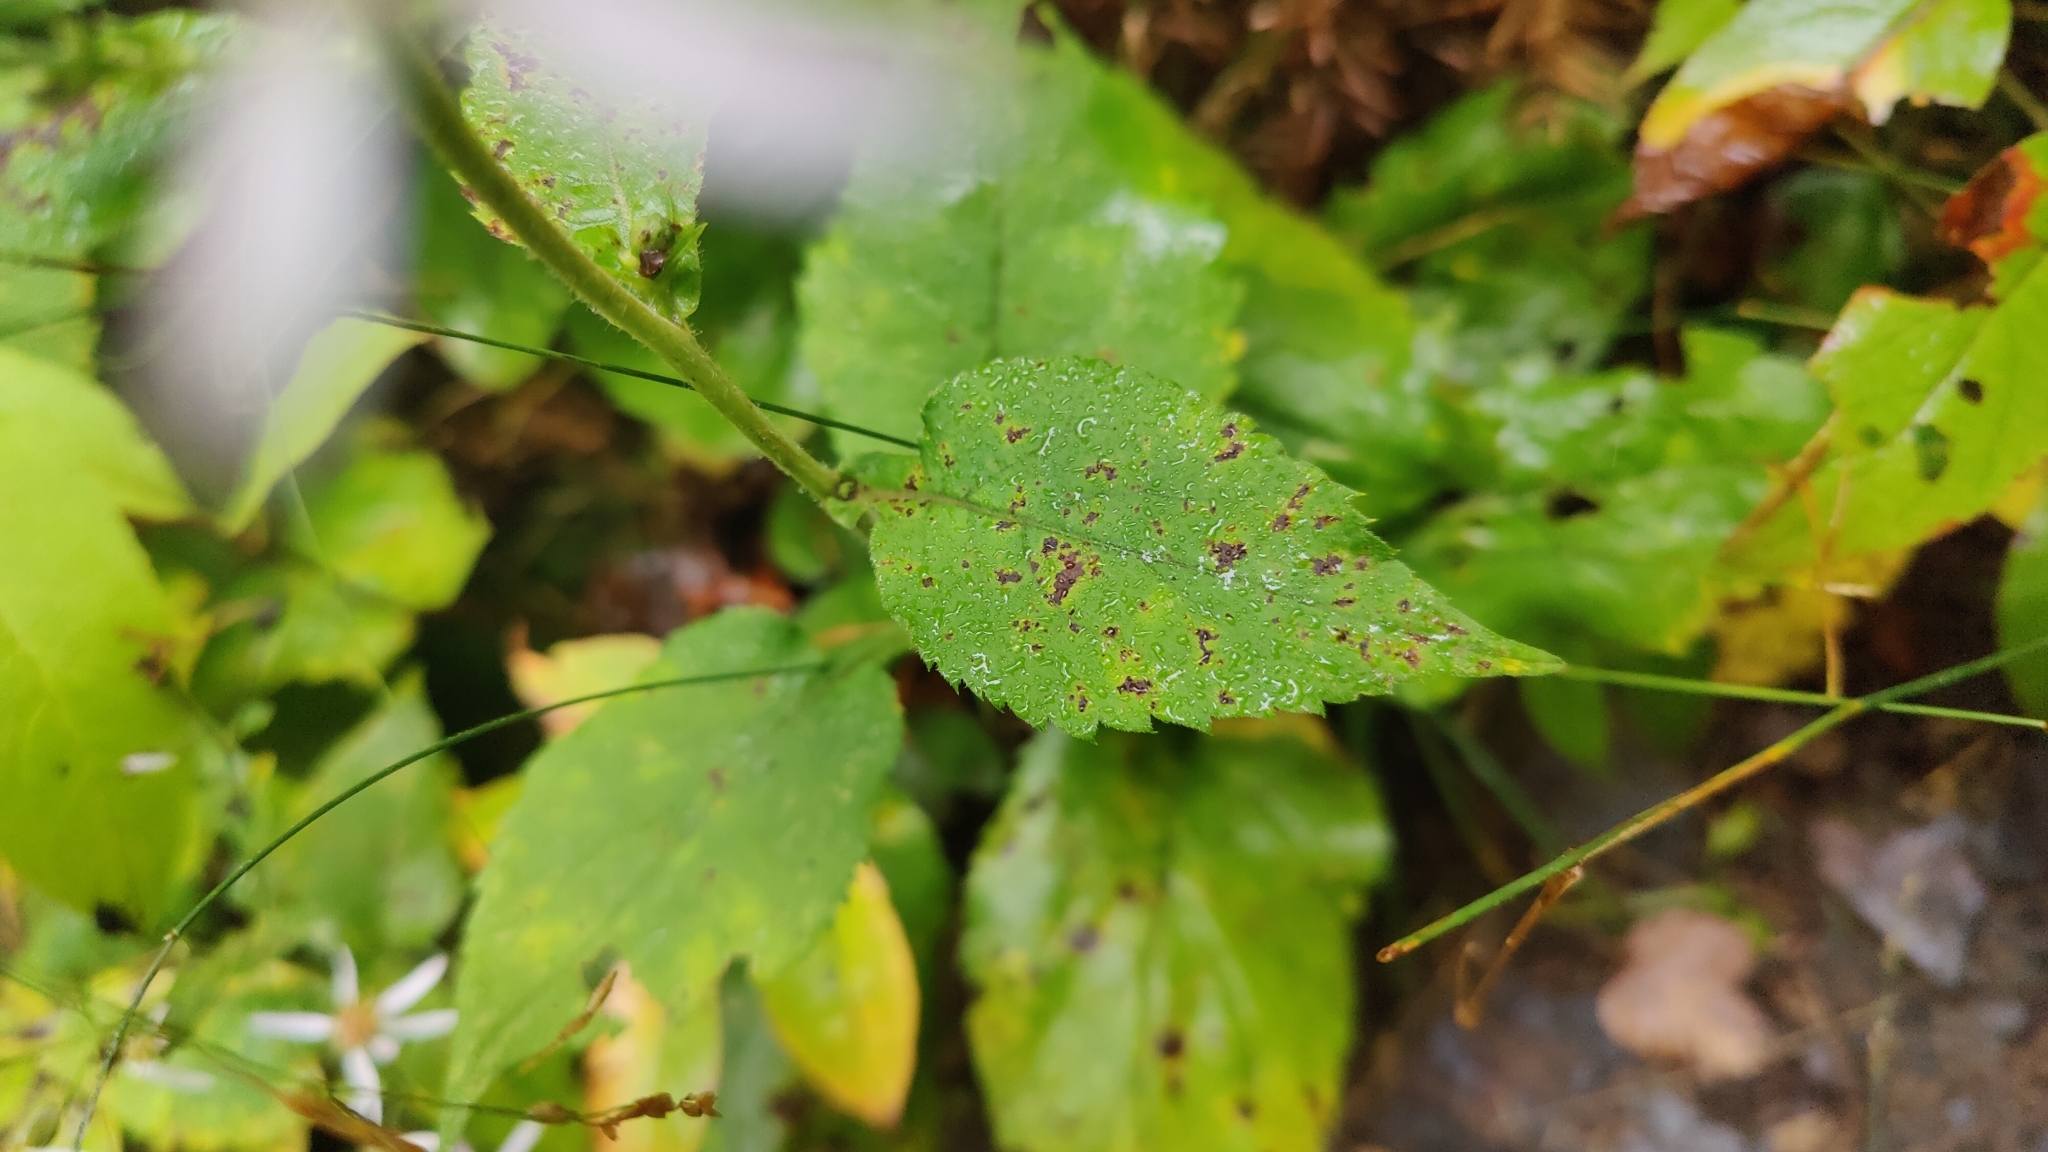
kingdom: Plantae
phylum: Tracheophyta
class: Magnoliopsida
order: Asterales
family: Asteraceae
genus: Eurybia
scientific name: Eurybia macrophylla
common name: Big-leaved aster
